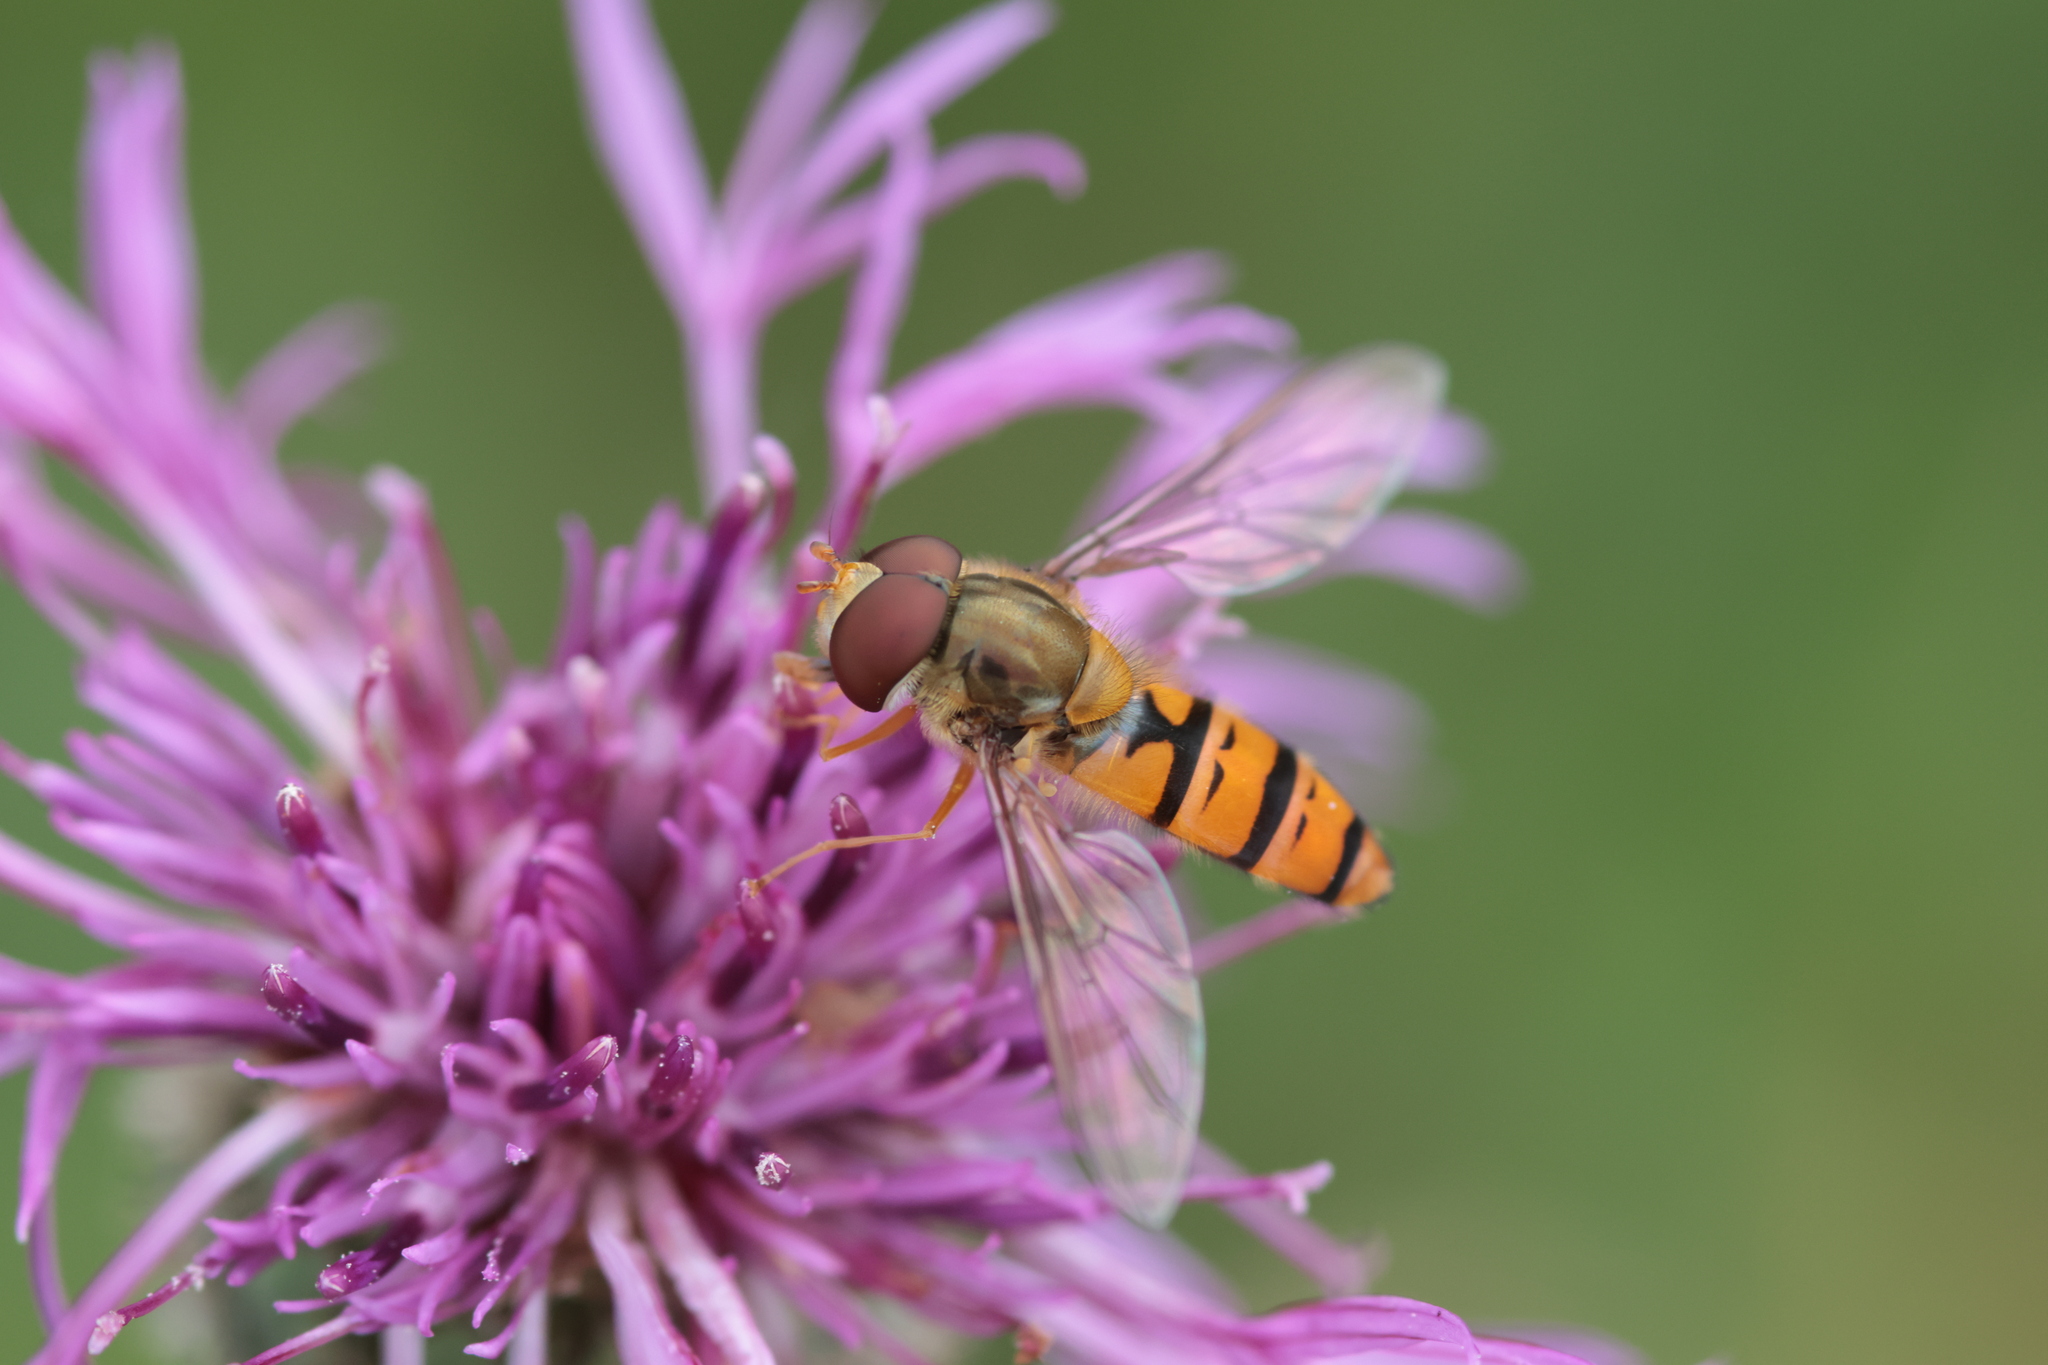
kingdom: Animalia
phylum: Arthropoda
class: Insecta
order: Diptera
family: Syrphidae
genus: Episyrphus
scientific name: Episyrphus balteatus
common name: Marmalade hoverfly
